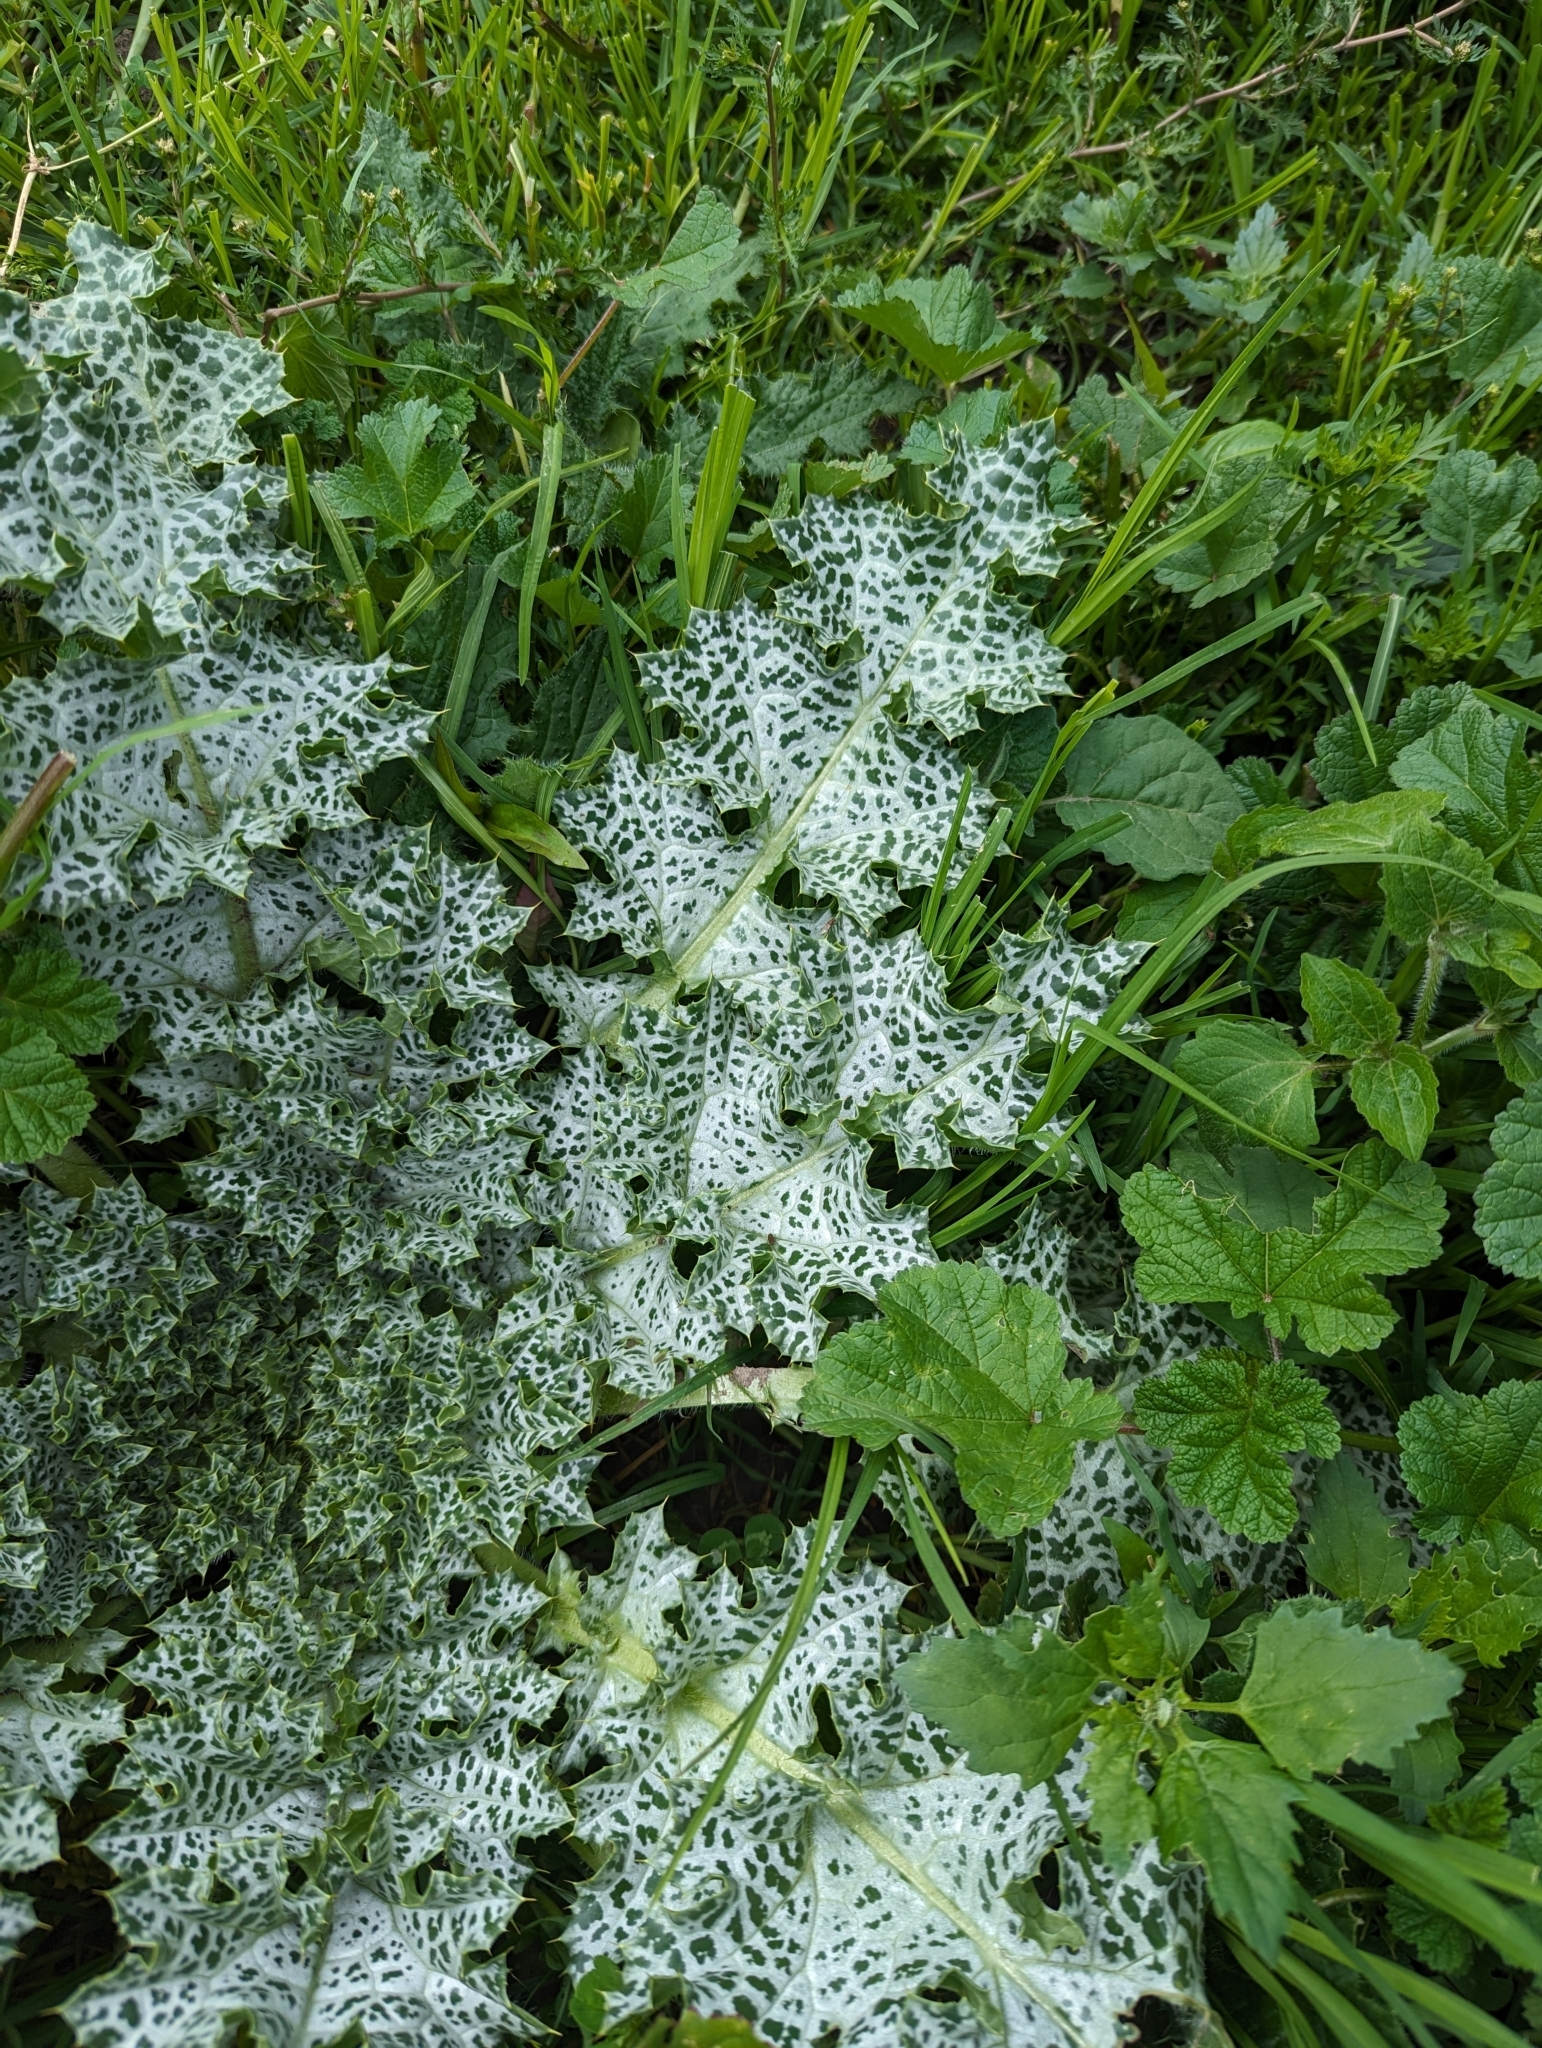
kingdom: Plantae
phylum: Tracheophyta
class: Magnoliopsida
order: Asterales
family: Asteraceae
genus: Silybum
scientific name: Silybum marianum
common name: Milk thistle
